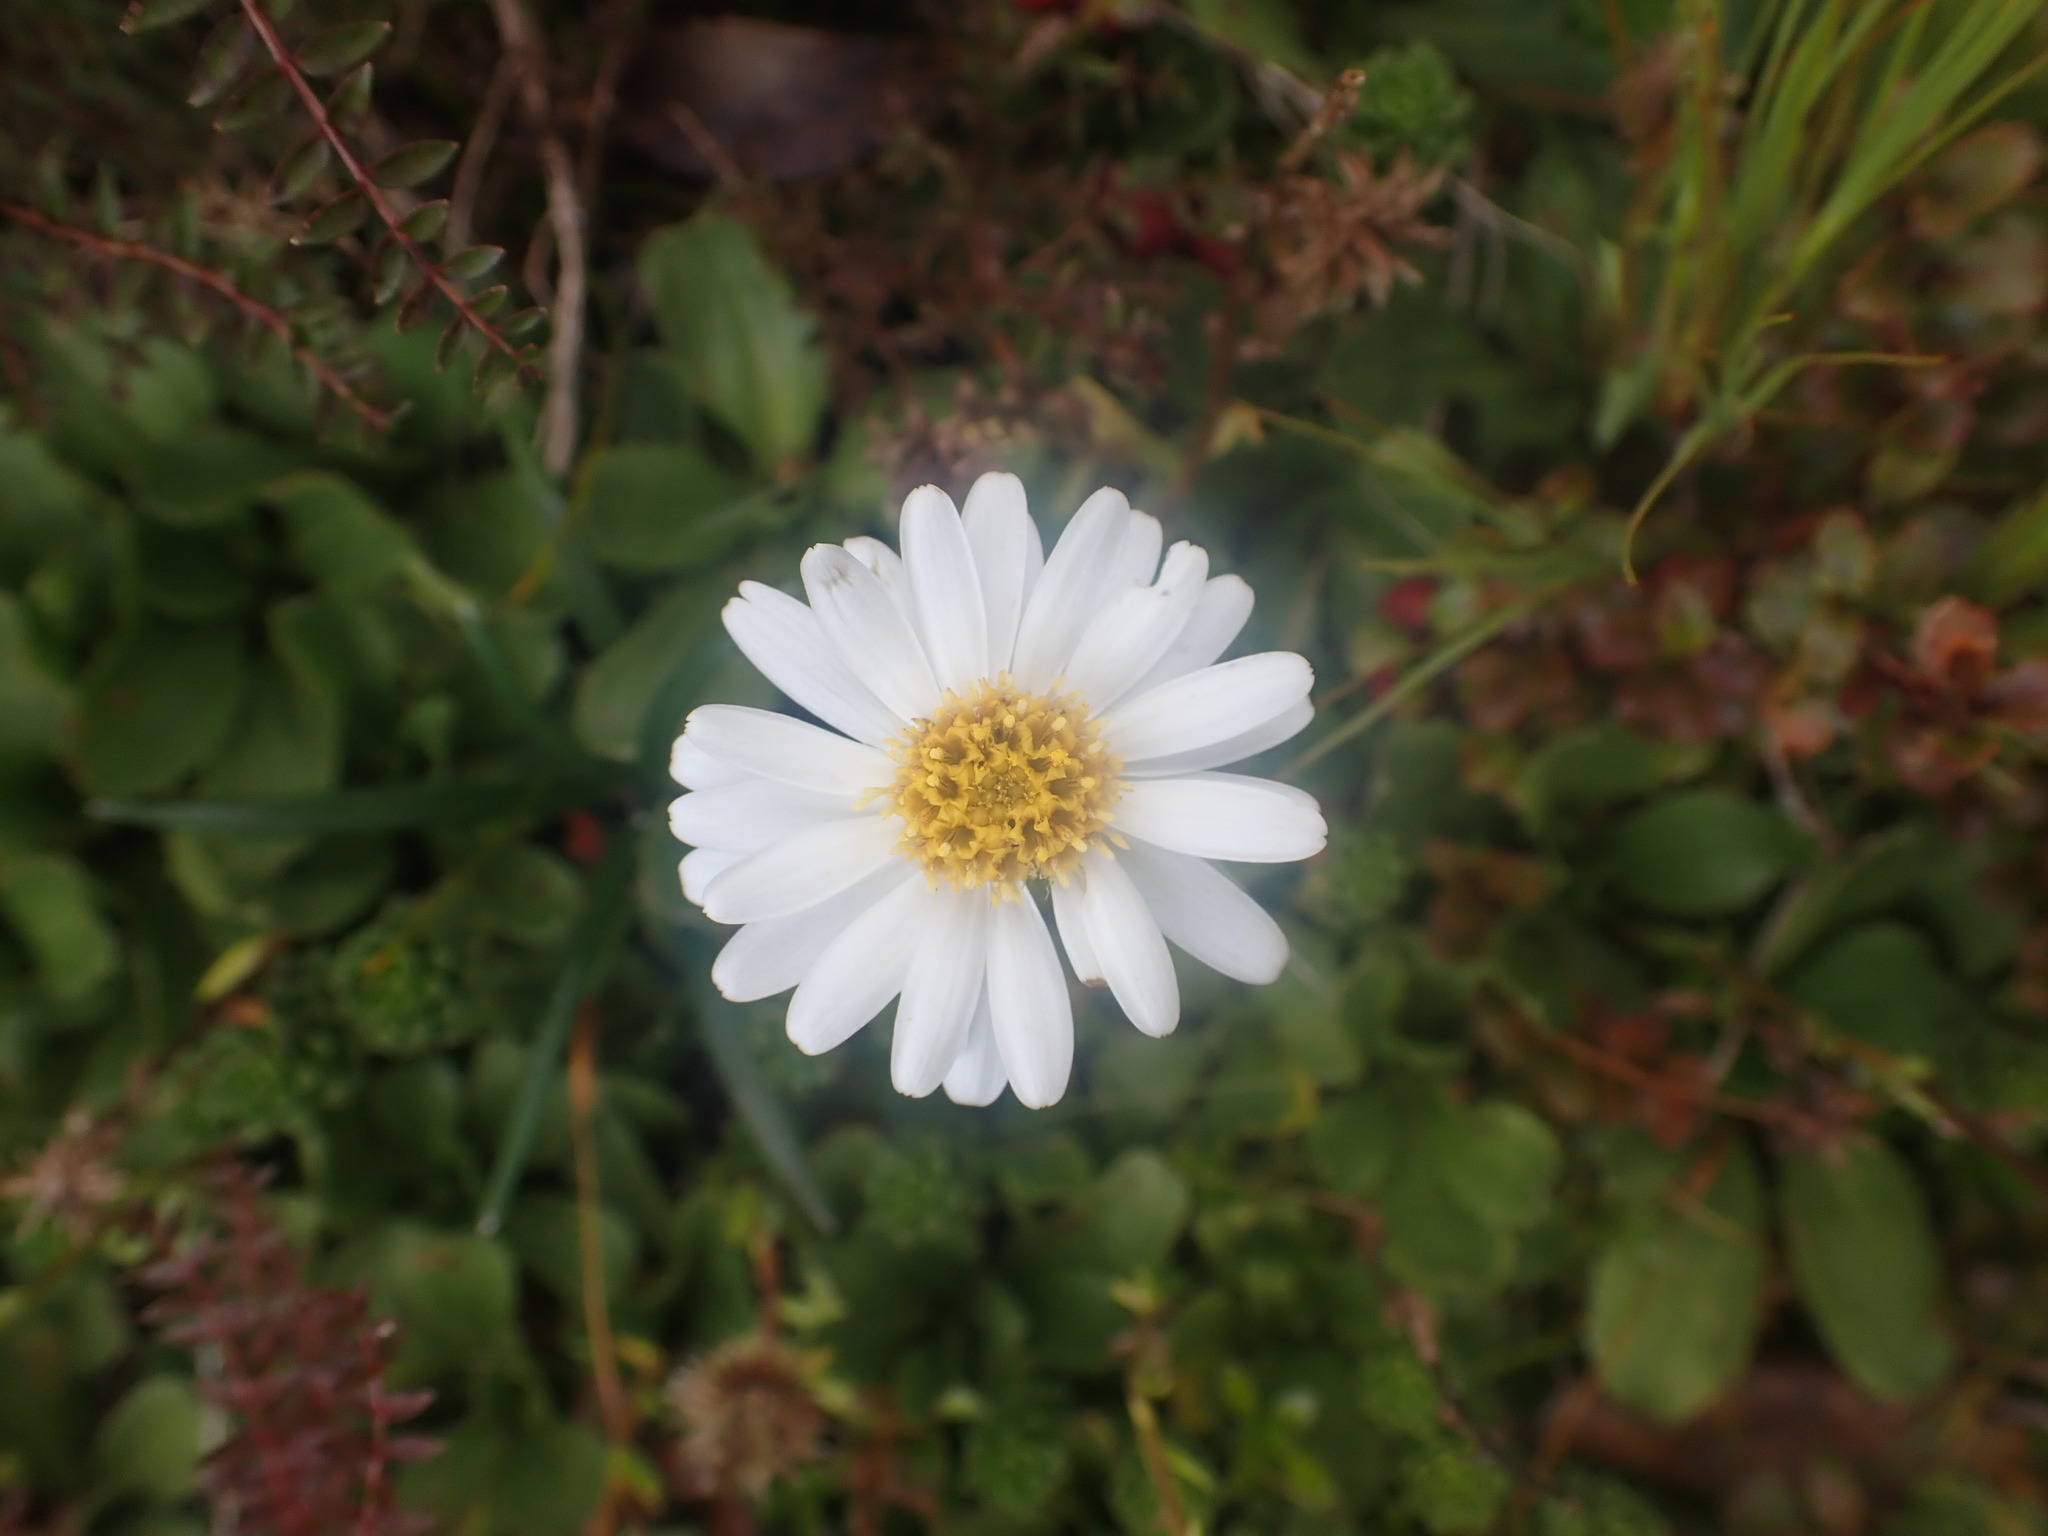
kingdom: Plantae
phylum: Tracheophyta
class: Magnoliopsida
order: Asterales
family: Asteraceae
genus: Celmisia
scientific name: Celmisia glandulosa
